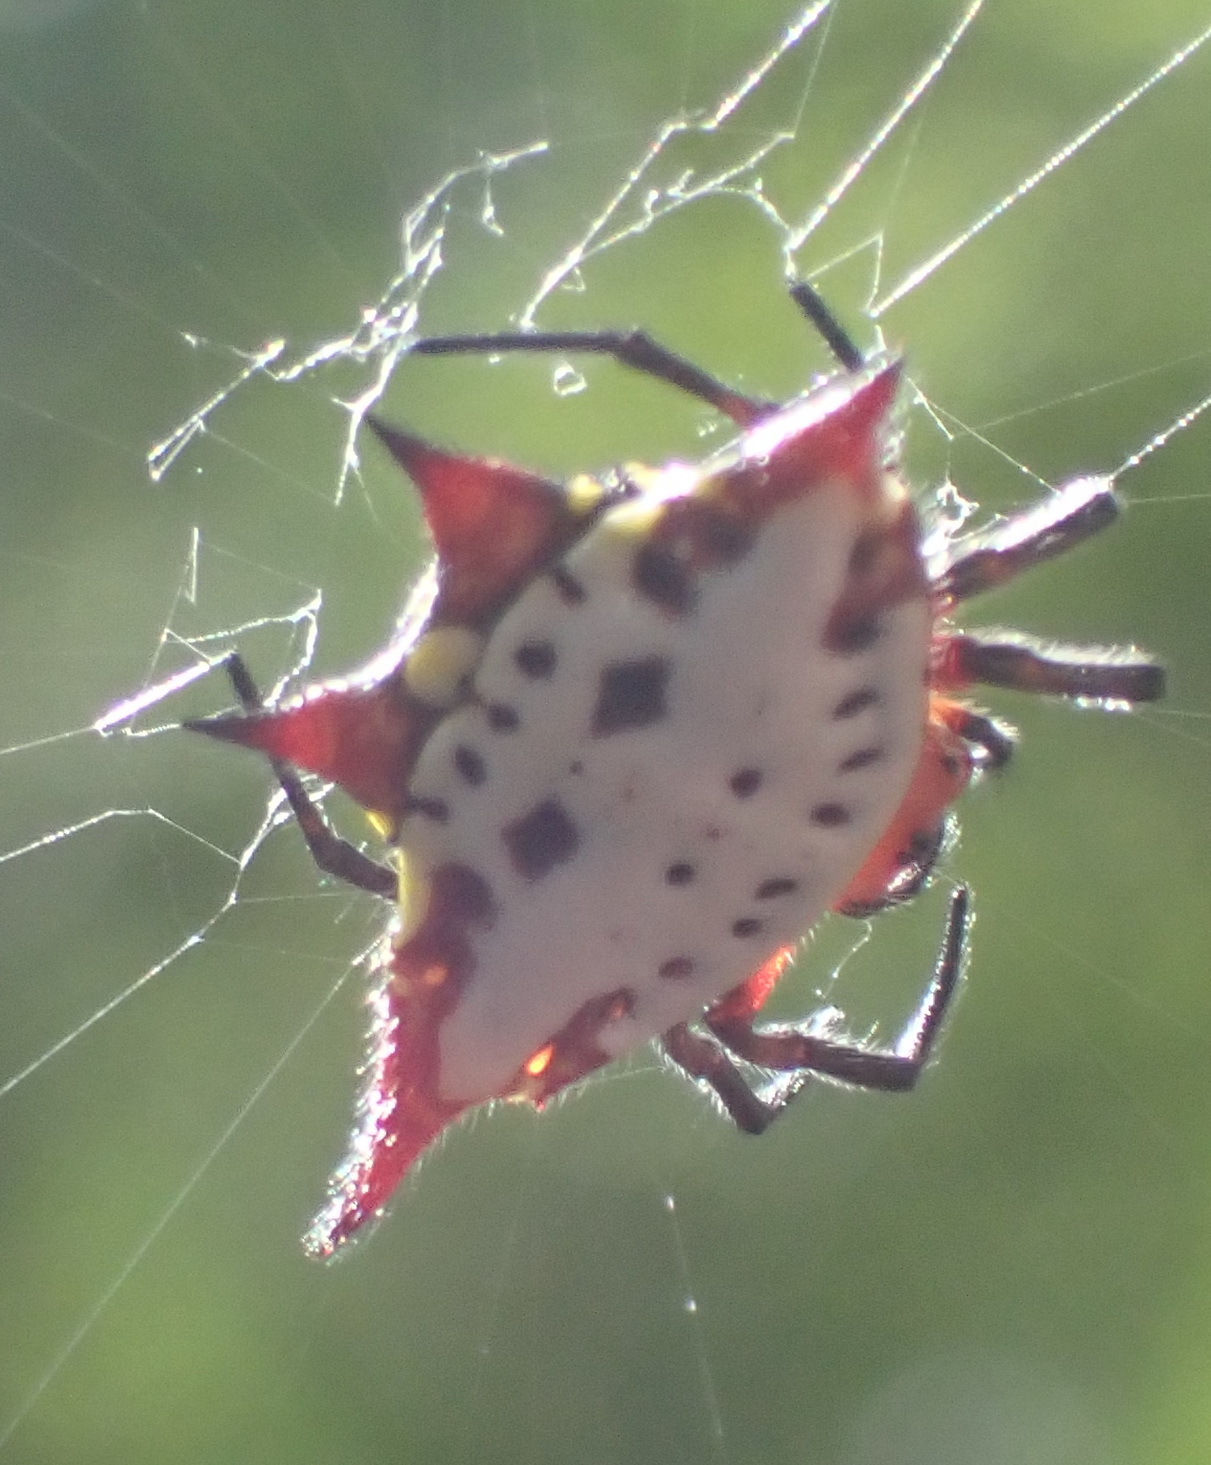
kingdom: Animalia
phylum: Arthropoda
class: Arachnida
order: Araneae
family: Araneidae
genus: Gasteracantha
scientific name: Gasteracantha sanguinolenta
